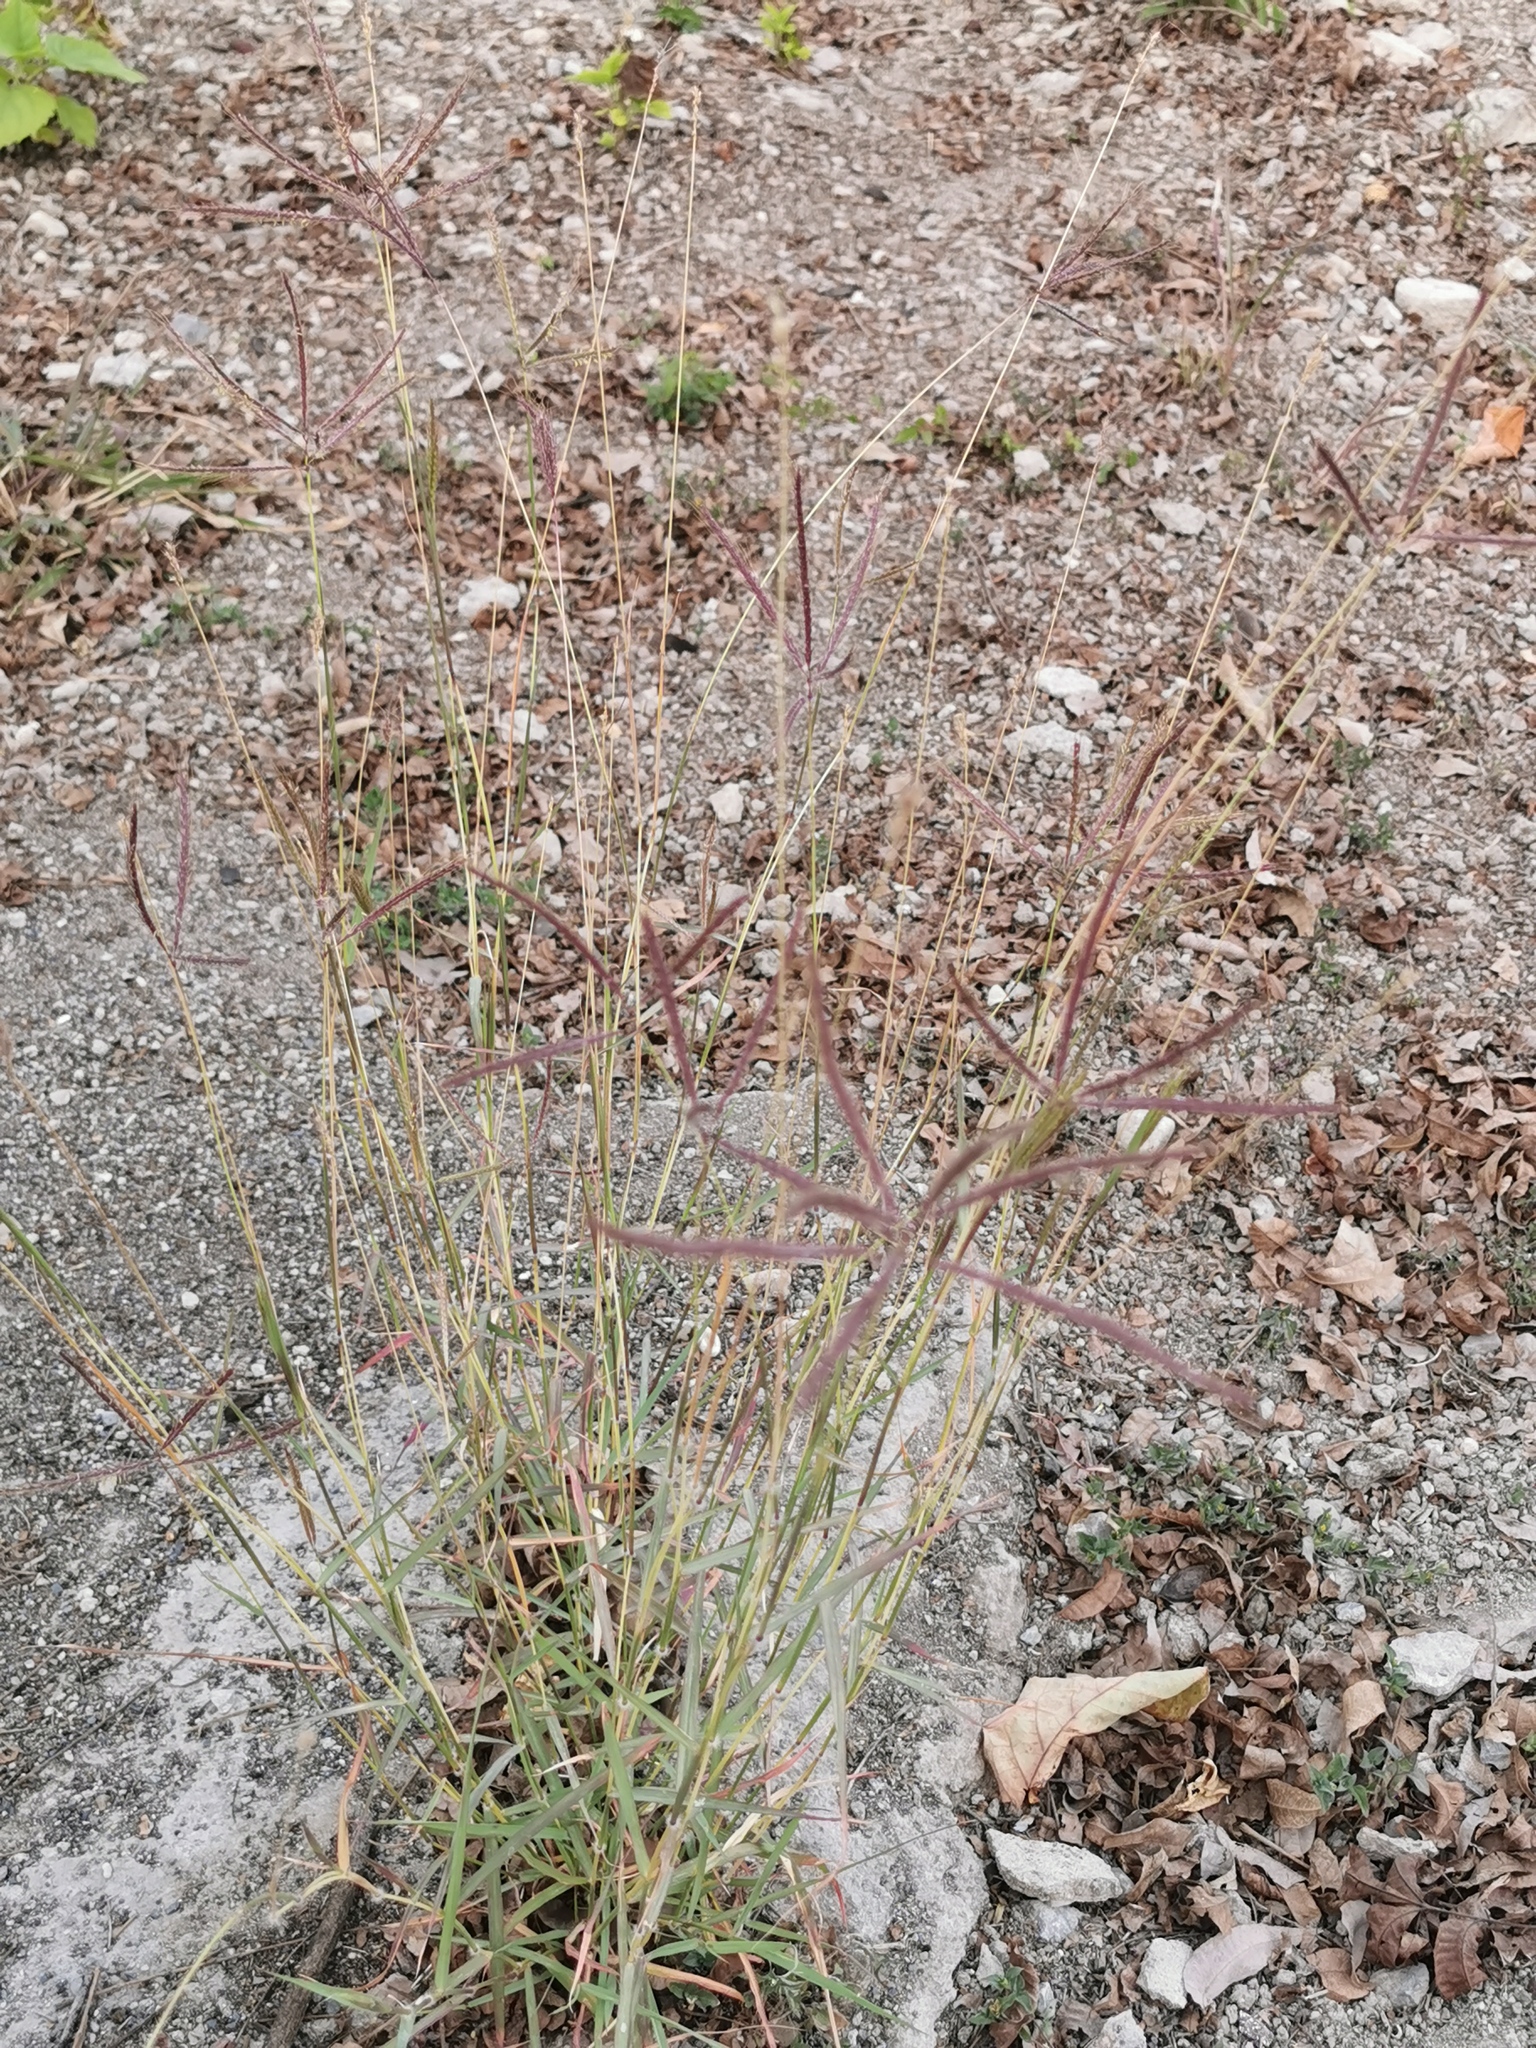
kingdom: Plantae
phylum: Tracheophyta
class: Liliopsida
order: Poales
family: Poaceae
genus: Dichanthium
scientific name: Dichanthium annulatum
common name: Kleberg's bluestem
